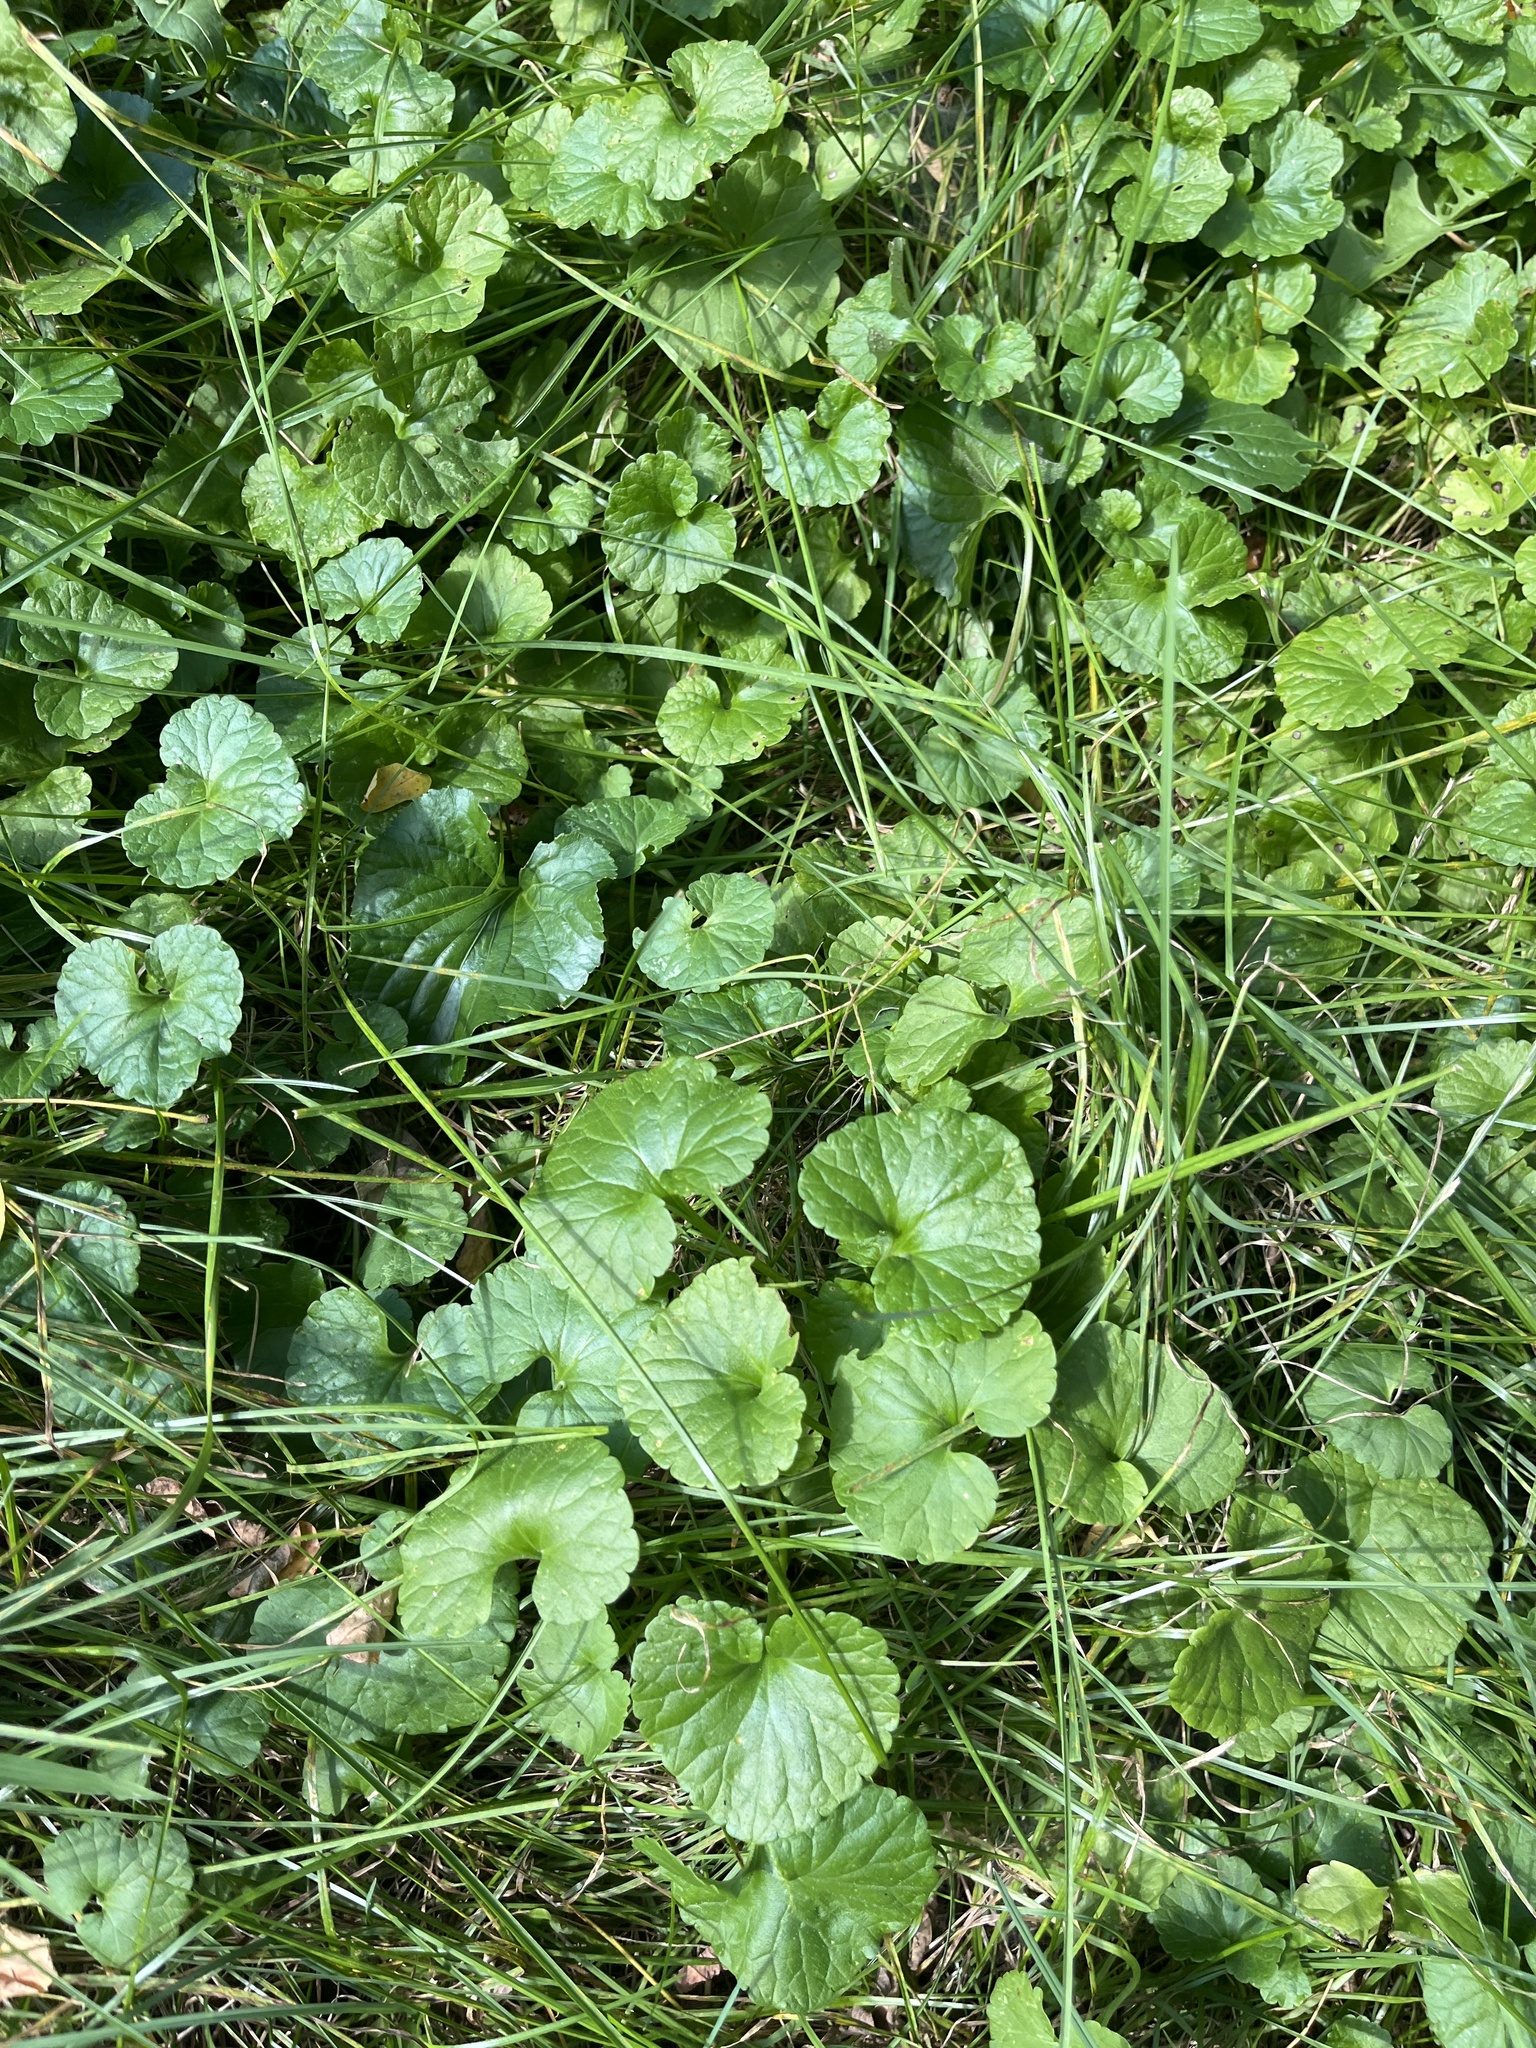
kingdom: Plantae
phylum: Tracheophyta
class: Magnoliopsida
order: Lamiales
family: Lamiaceae
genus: Glechoma
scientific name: Glechoma hederacea
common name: Ground ivy
